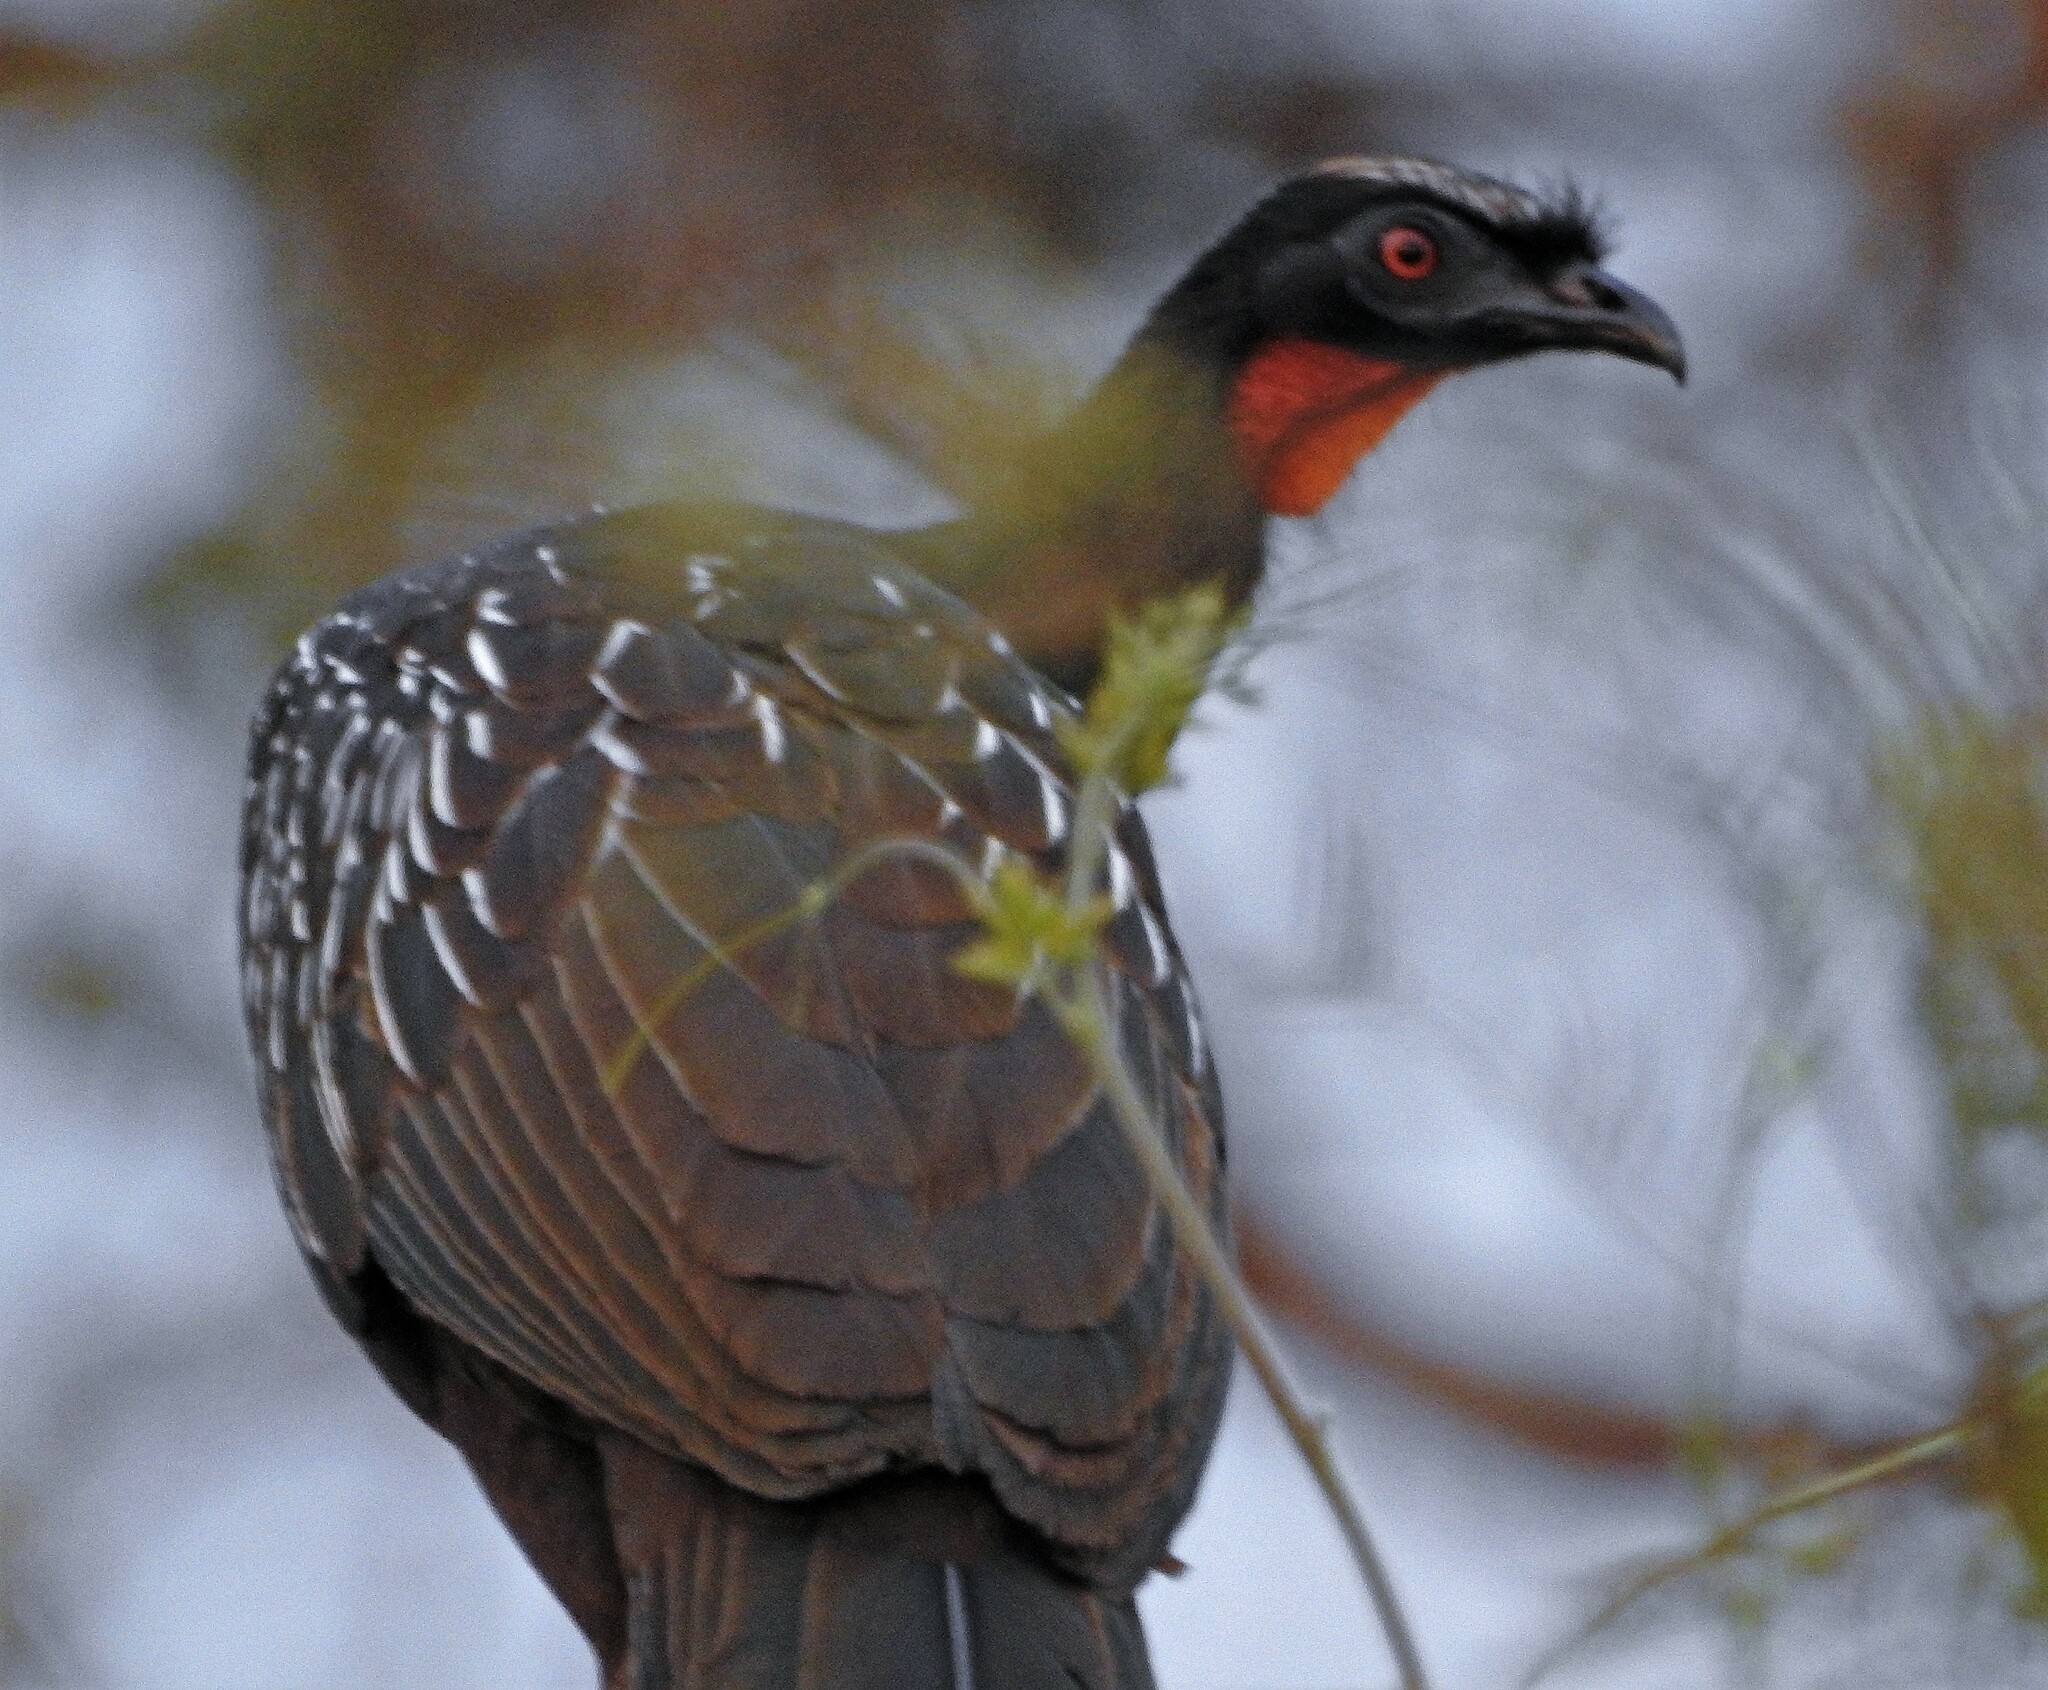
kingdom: Animalia
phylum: Chordata
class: Aves
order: Galliformes
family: Cracidae
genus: Penelope
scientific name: Penelope bridgesi
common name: Yungas guan
